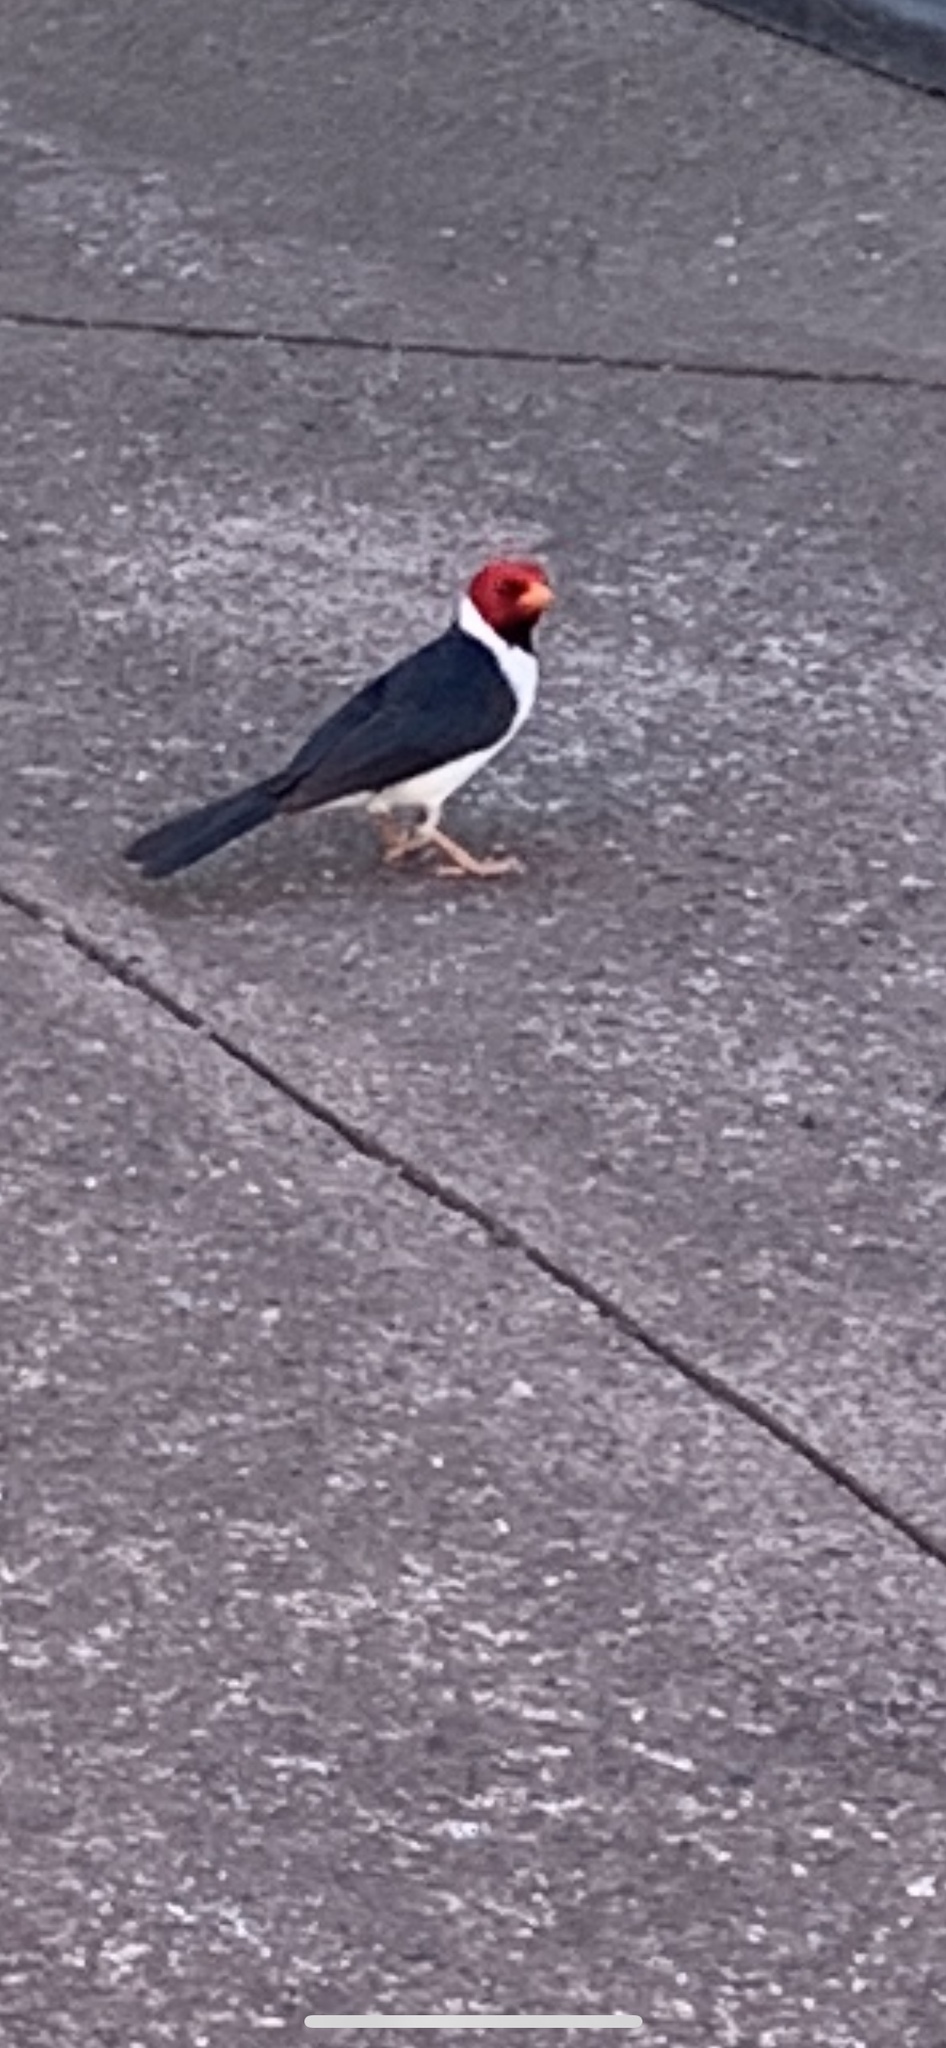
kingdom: Animalia
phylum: Chordata
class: Aves
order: Passeriformes
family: Thraupidae
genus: Paroaria
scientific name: Paroaria capitata
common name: Yellow-billed cardinal
